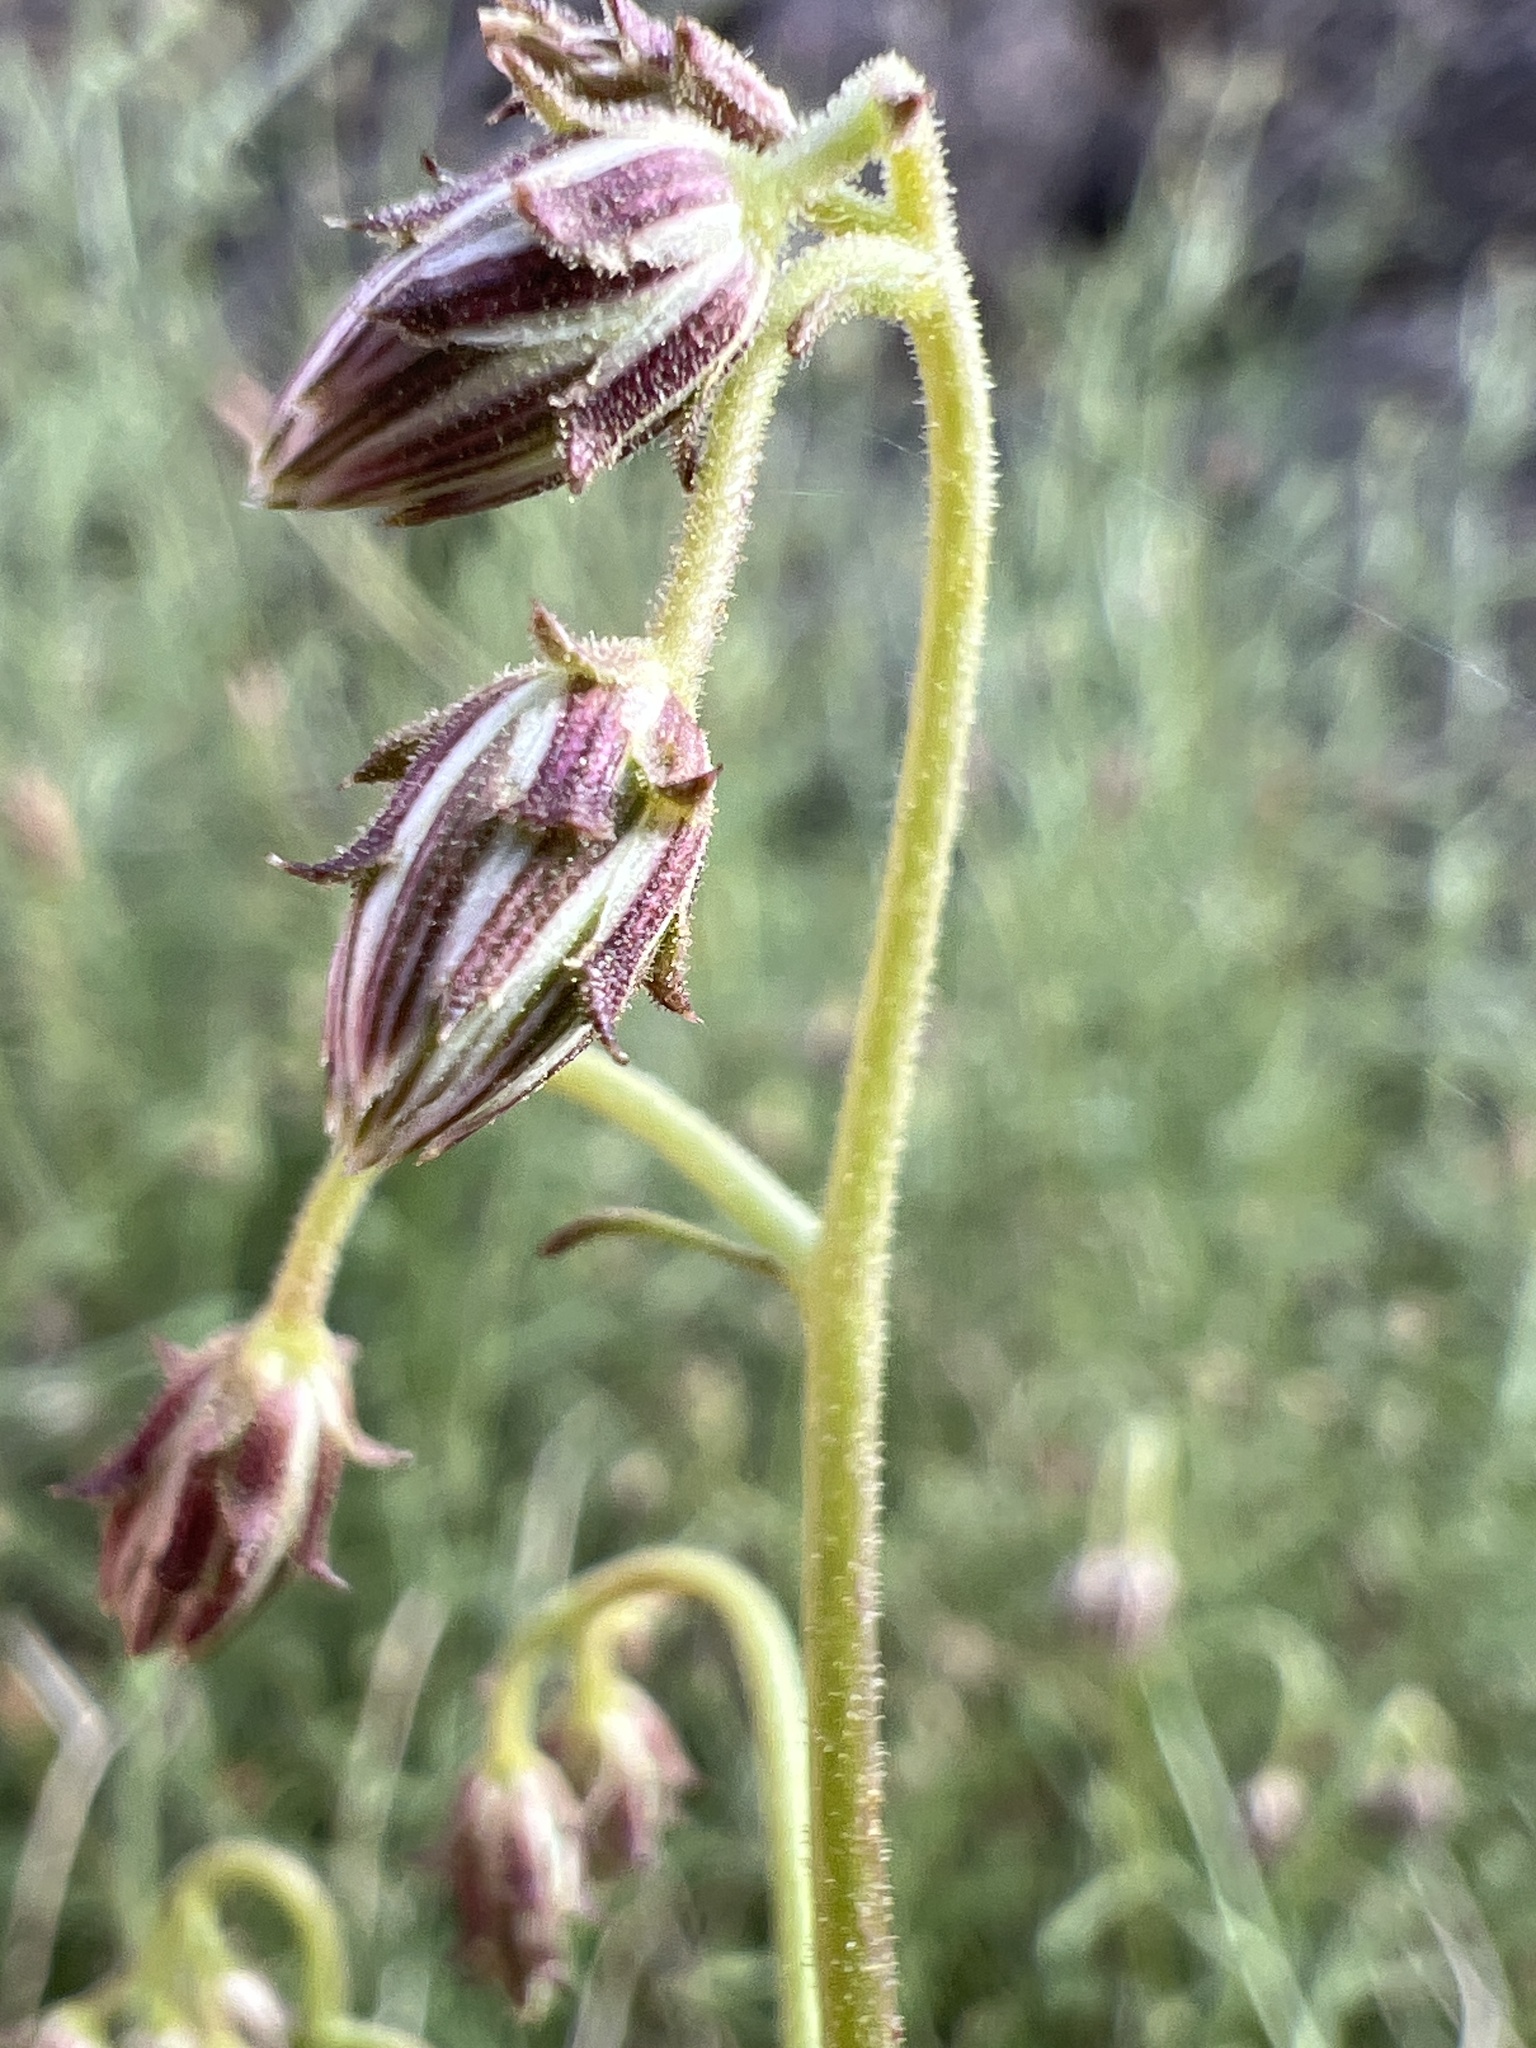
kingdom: Plantae
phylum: Tracheophyta
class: Magnoliopsida
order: Asterales
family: Asteraceae
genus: Pleurocoronis
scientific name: Pleurocoronis pluriseta
